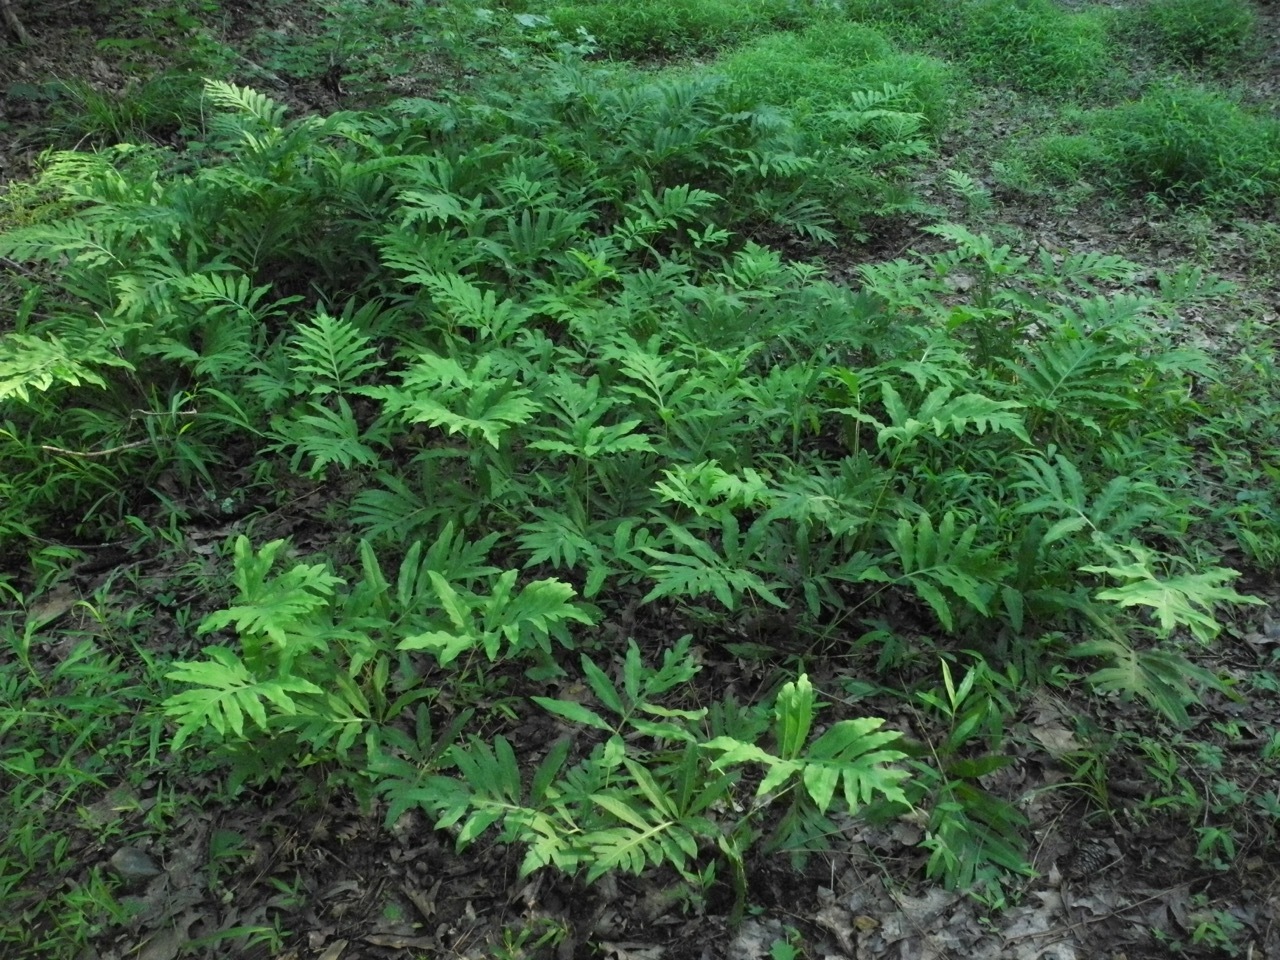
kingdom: Plantae
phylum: Tracheophyta
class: Polypodiopsida
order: Polypodiales
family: Onocleaceae
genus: Onoclea
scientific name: Onoclea sensibilis
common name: Sensitive fern
